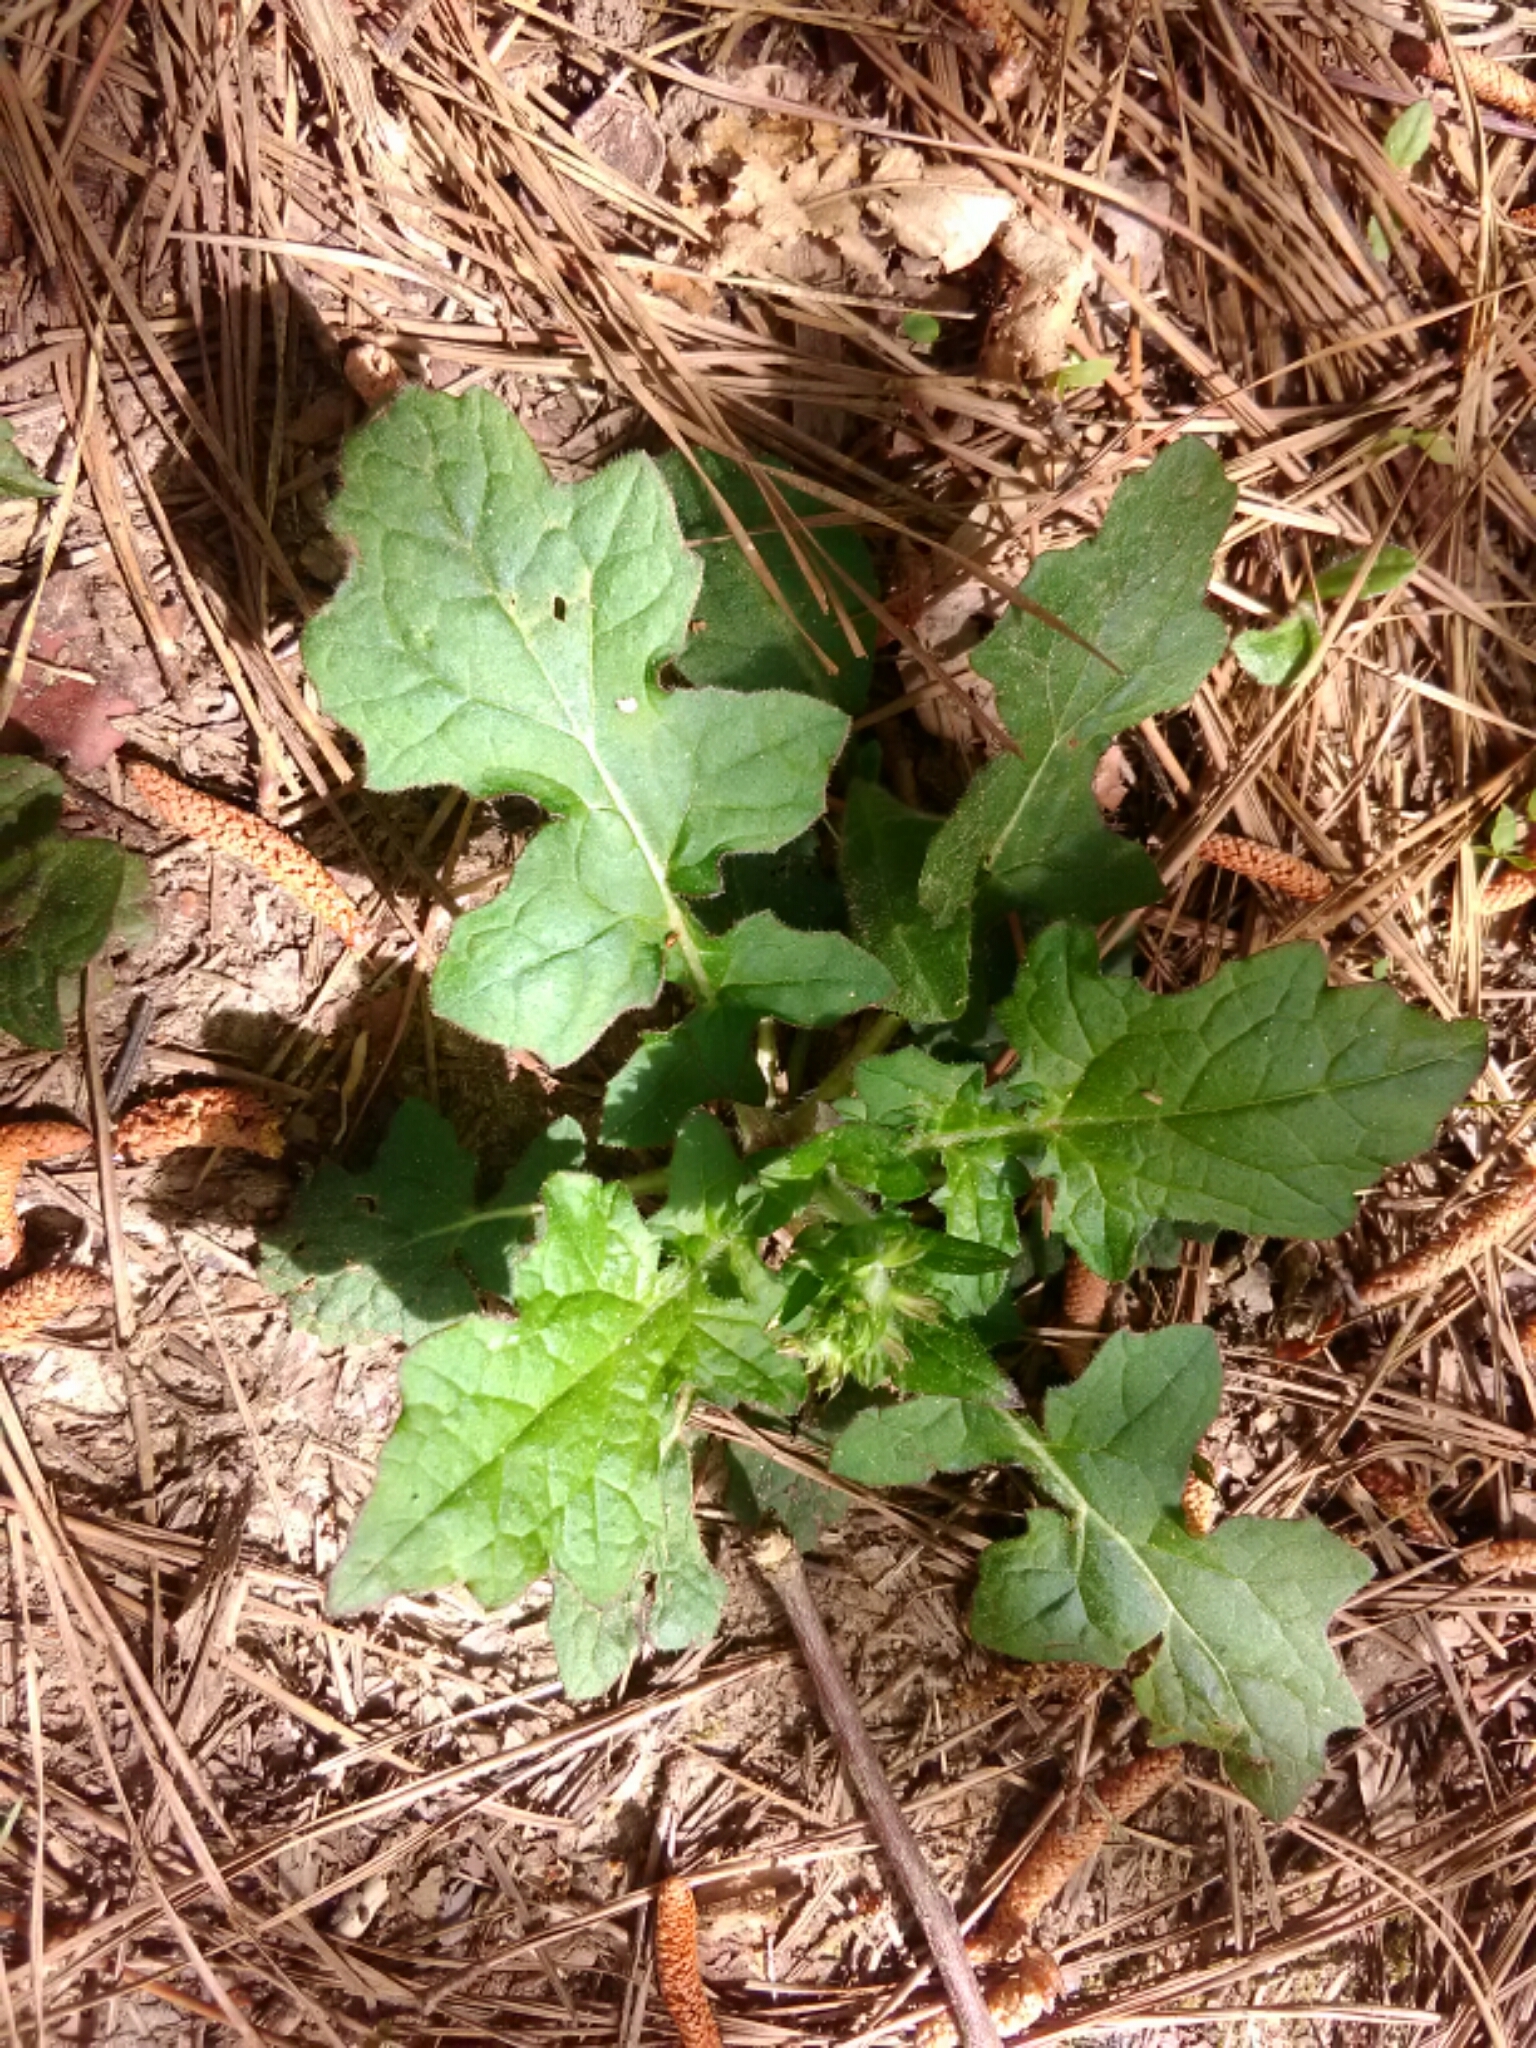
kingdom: Plantae
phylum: Tracheophyta
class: Magnoliopsida
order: Lamiales
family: Lamiaceae
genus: Salvia
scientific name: Salvia lyrata
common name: Cancerweed
